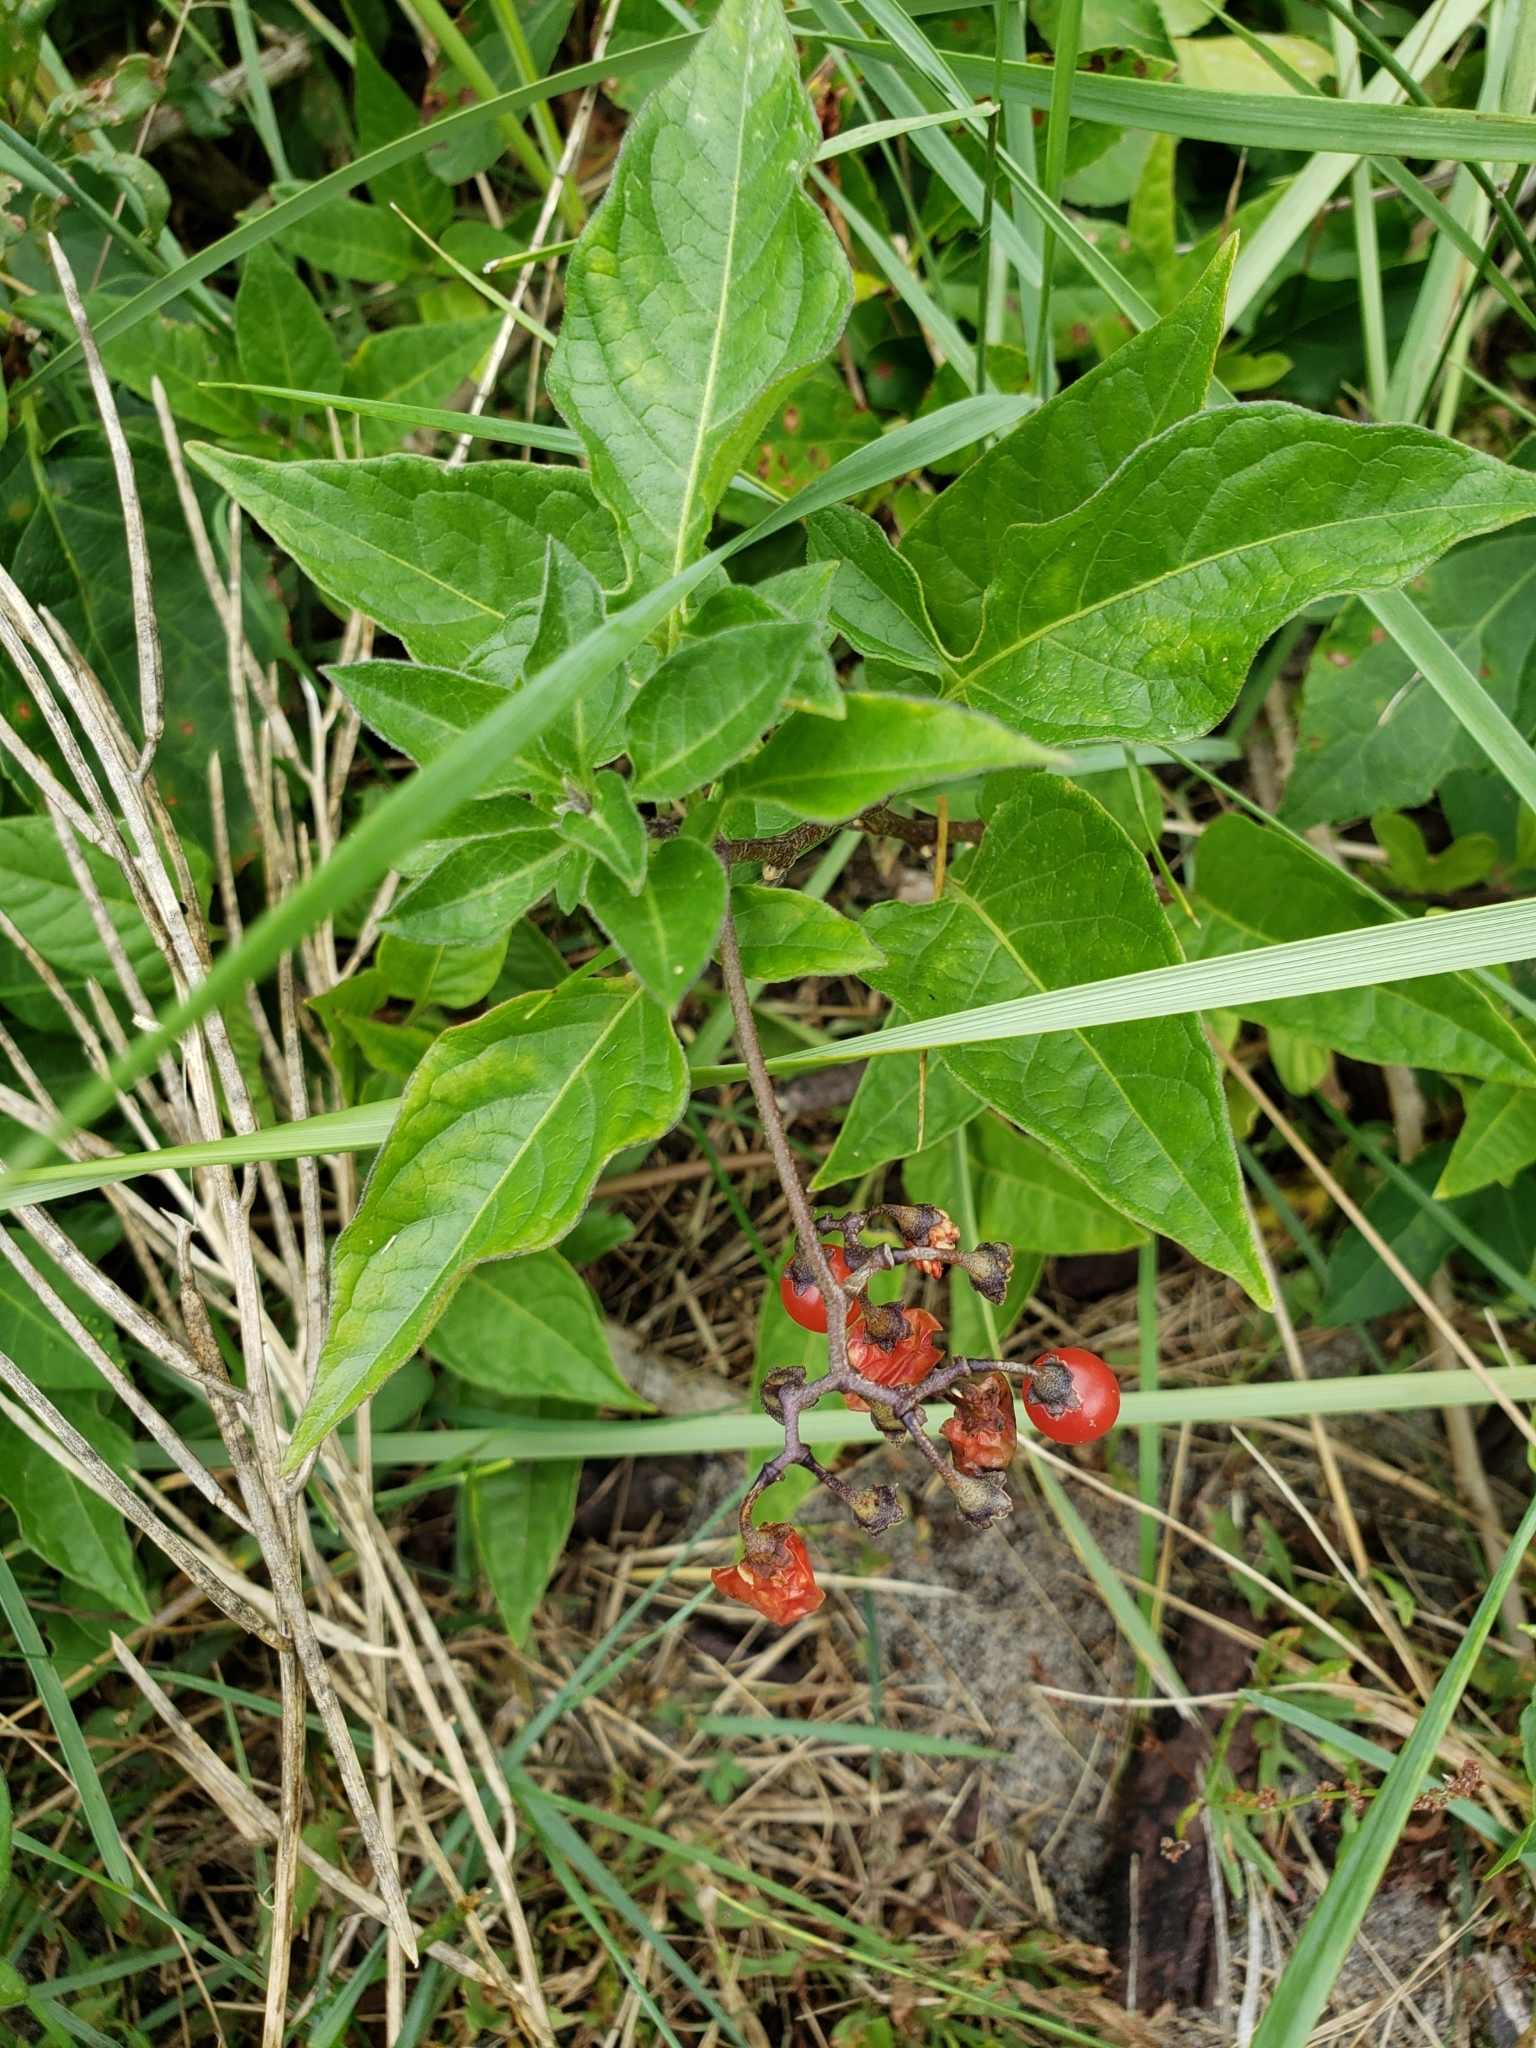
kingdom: Plantae
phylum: Tracheophyta
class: Magnoliopsida
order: Solanales
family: Solanaceae
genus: Solanum
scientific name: Solanum dulcamara
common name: Climbing nightshade
